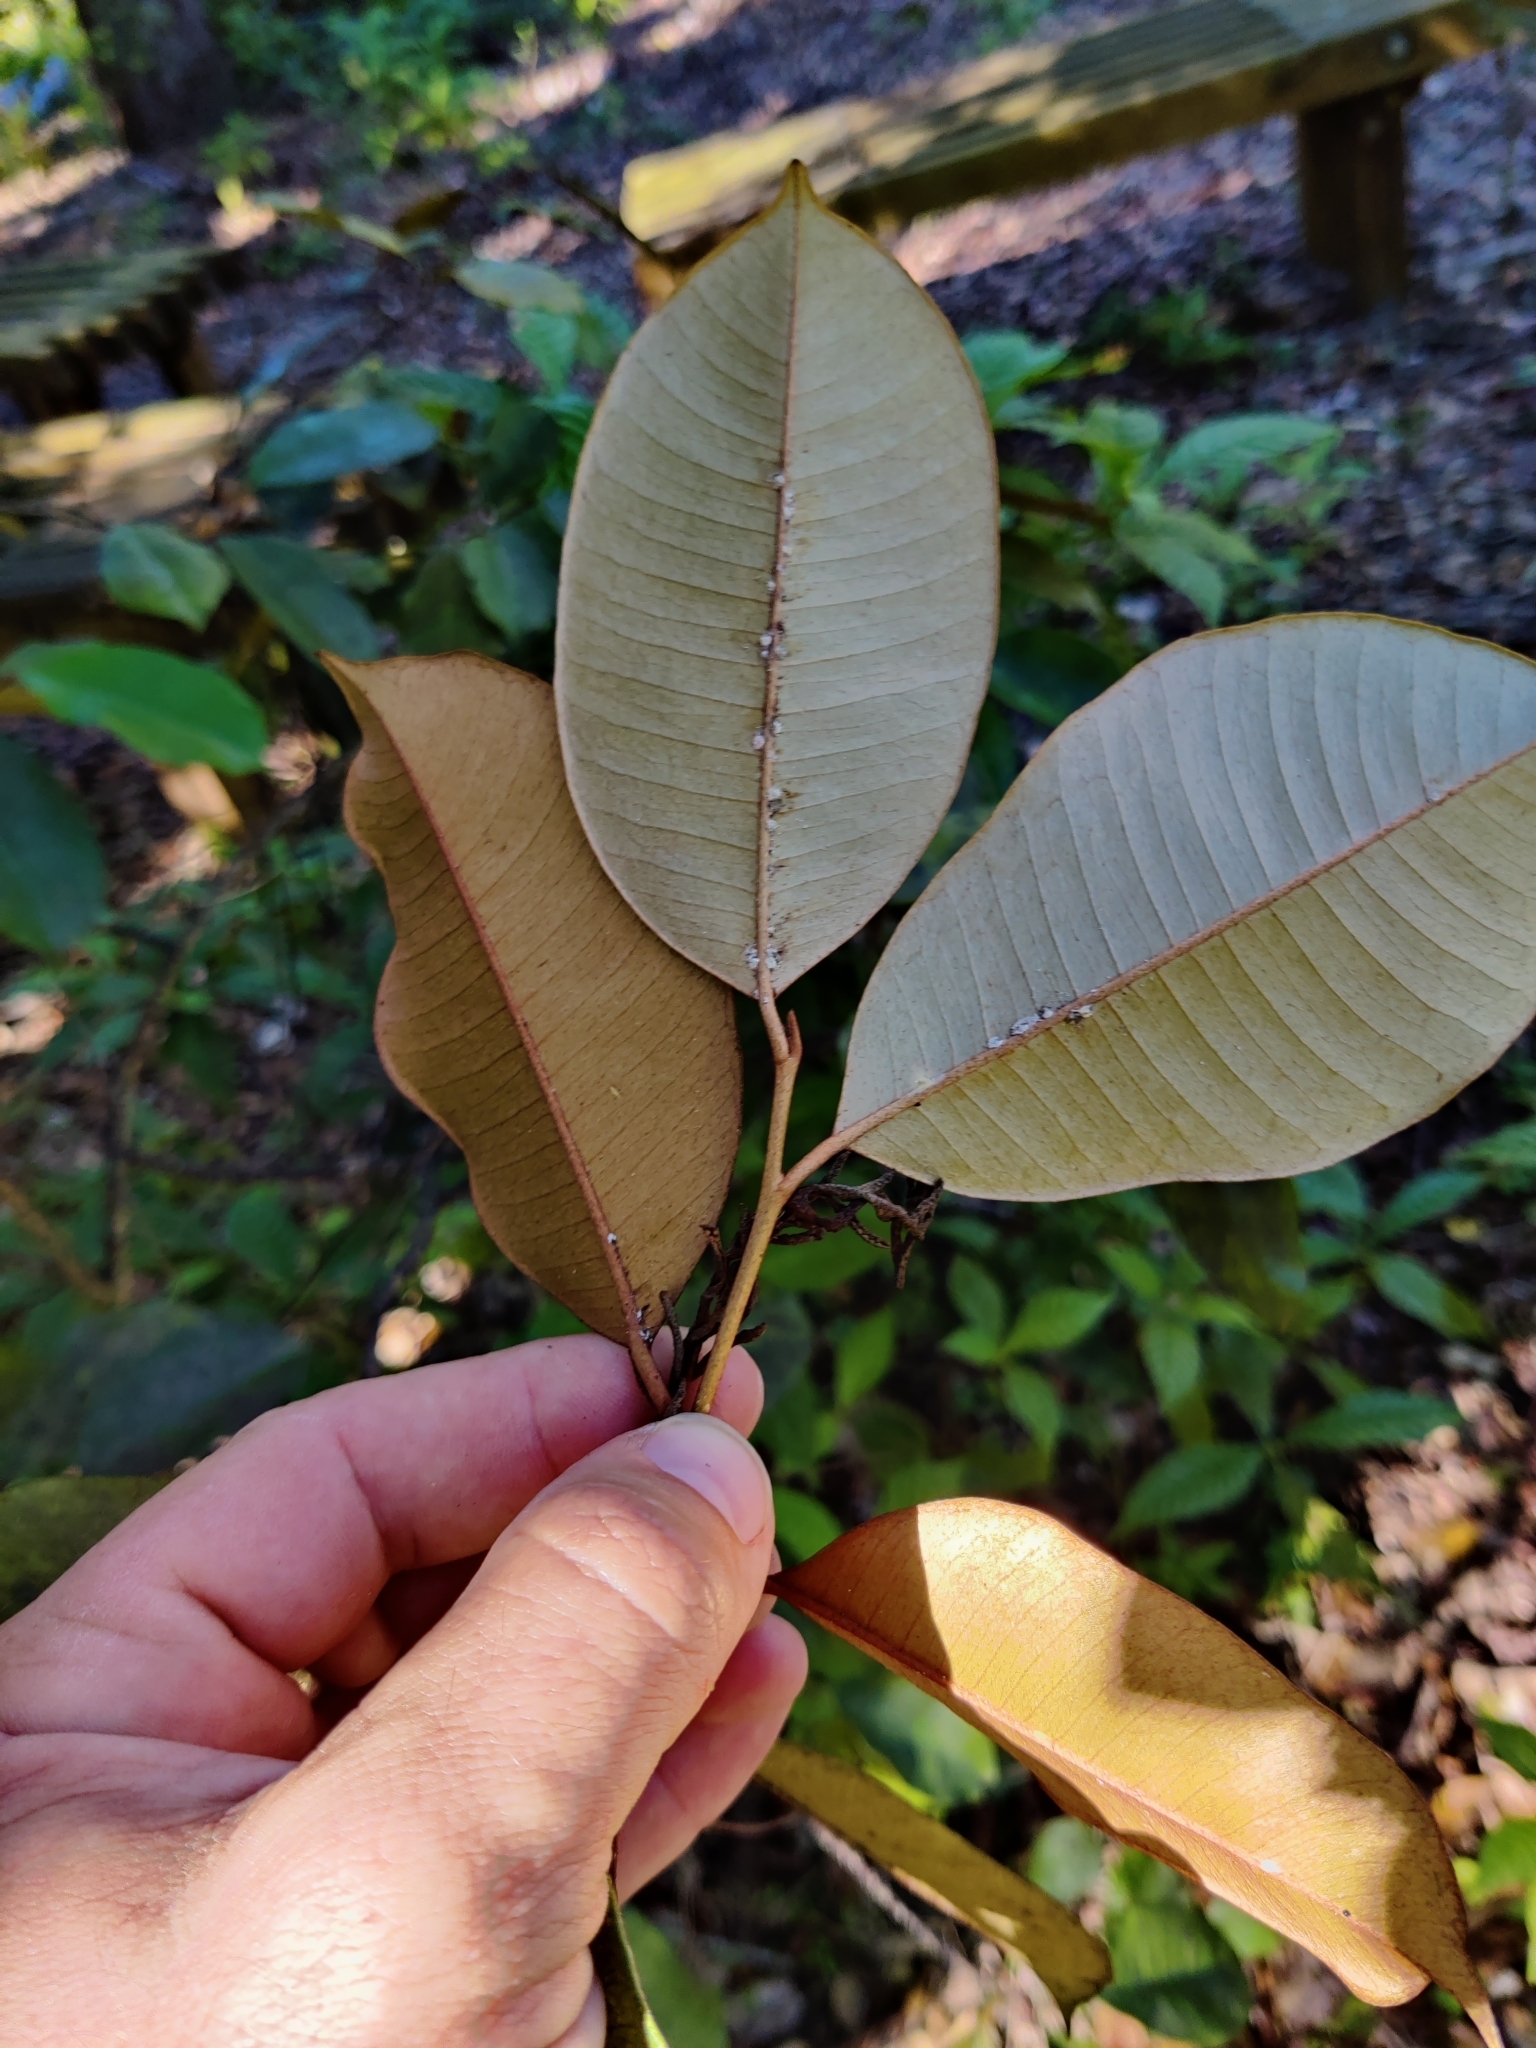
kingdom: Plantae
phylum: Tracheophyta
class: Magnoliopsida
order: Ericales
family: Sapotaceae
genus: Chrysophyllum
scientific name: Chrysophyllum oliviforme
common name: Satinleaf
